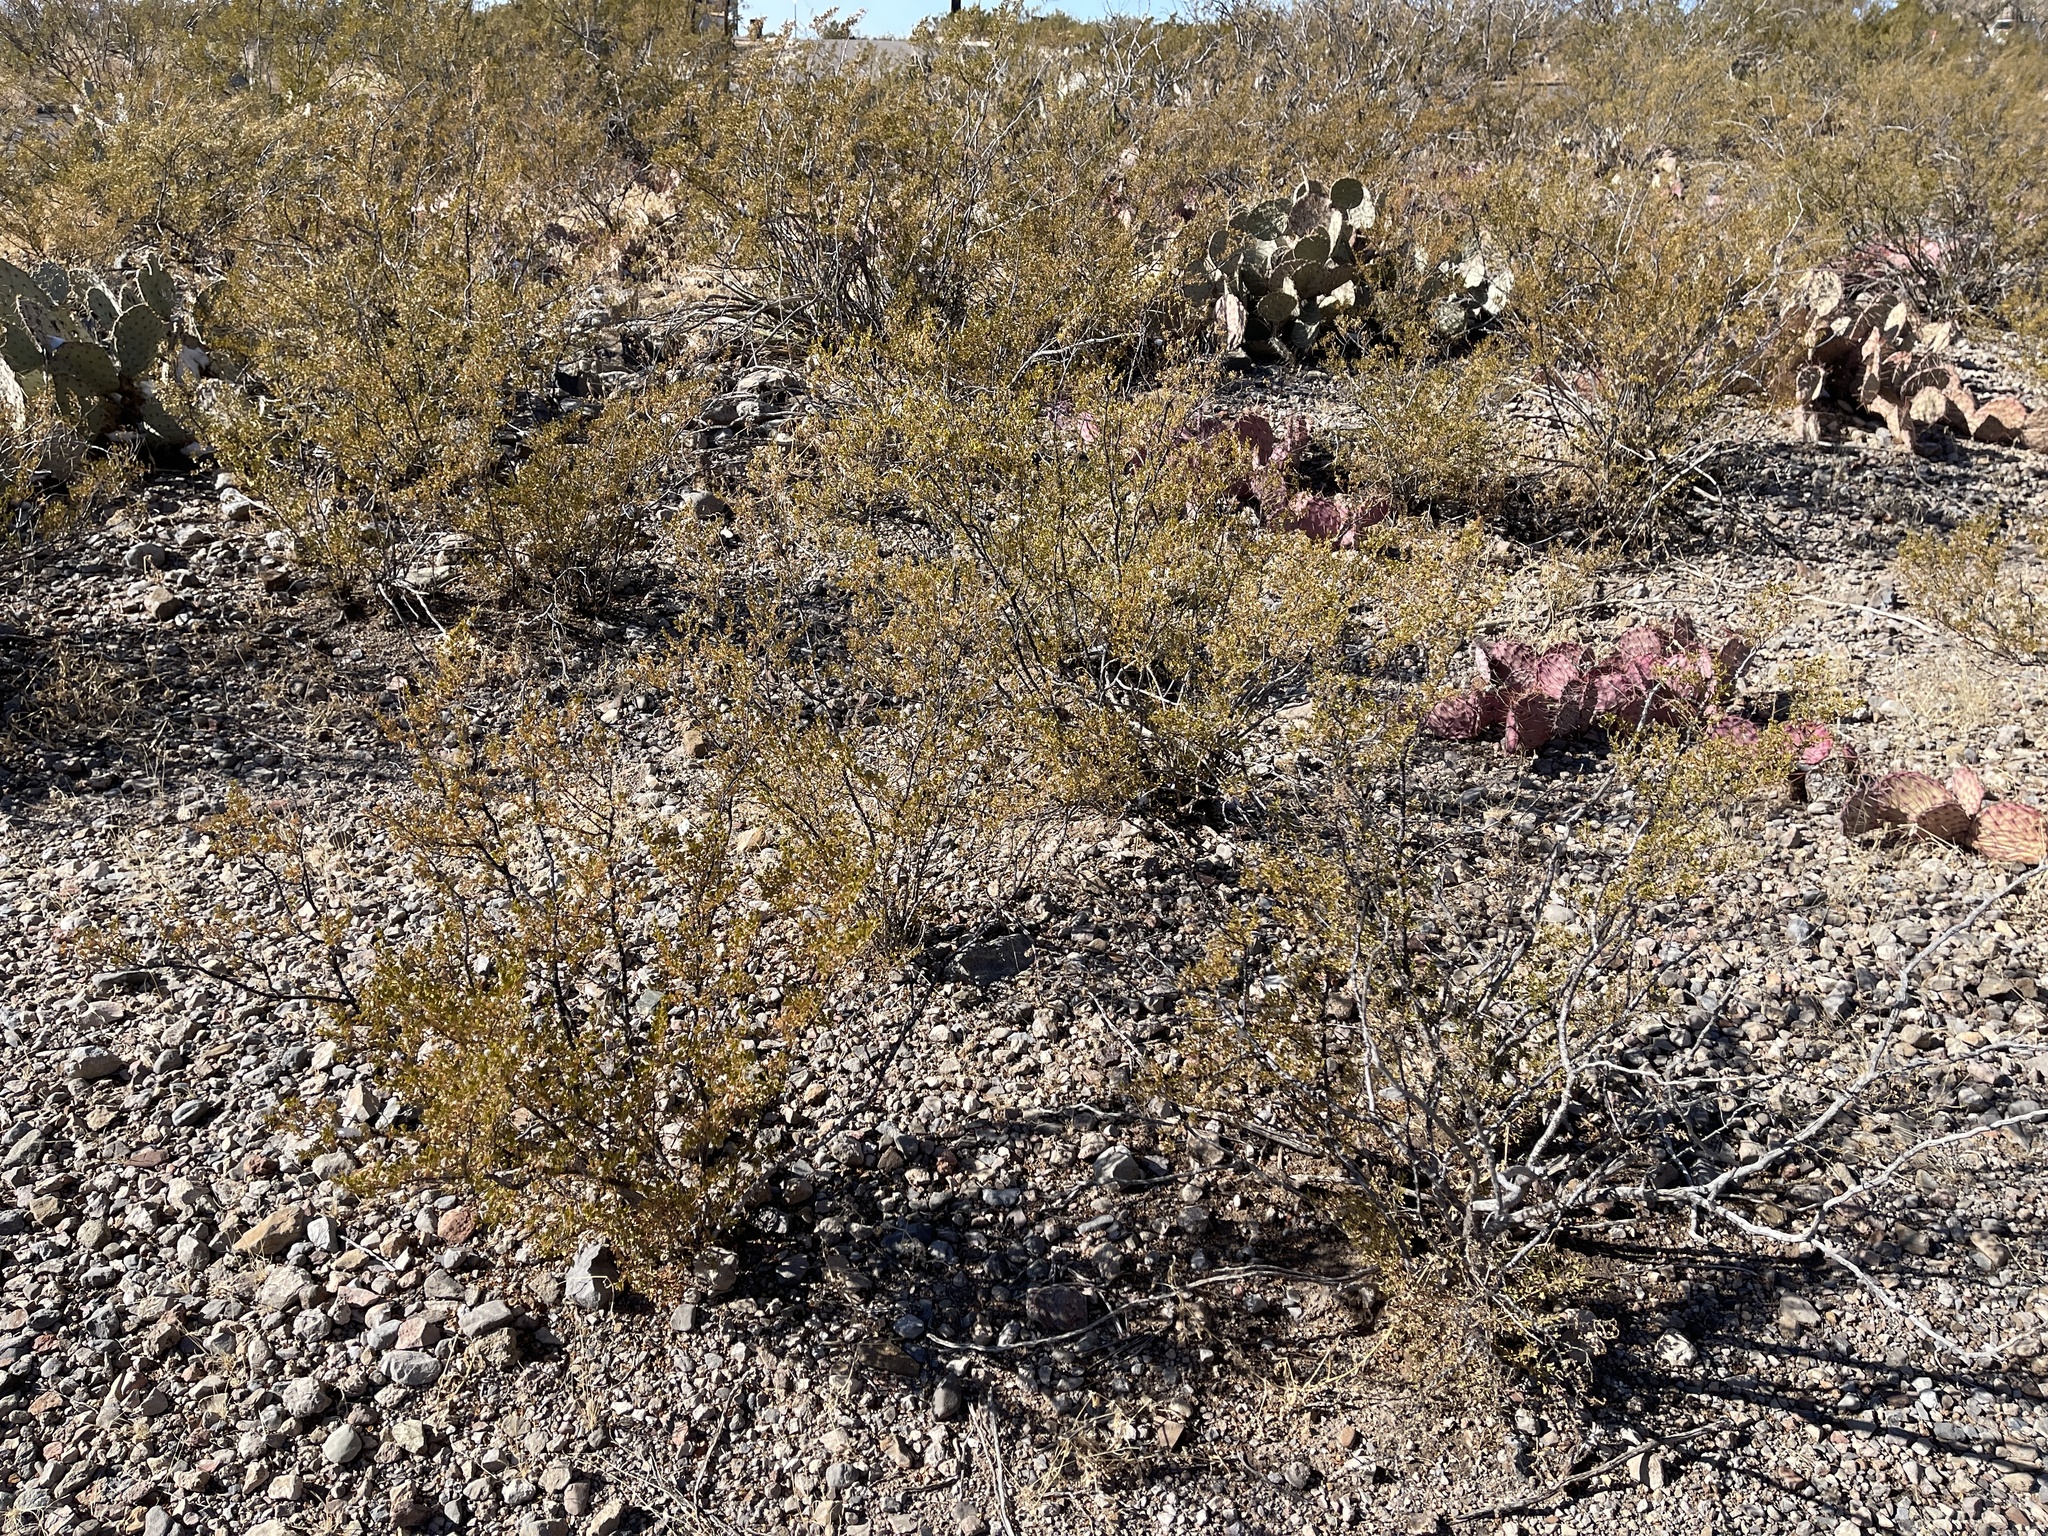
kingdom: Plantae
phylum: Tracheophyta
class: Magnoliopsida
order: Zygophyllales
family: Zygophyllaceae
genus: Larrea
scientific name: Larrea tridentata
